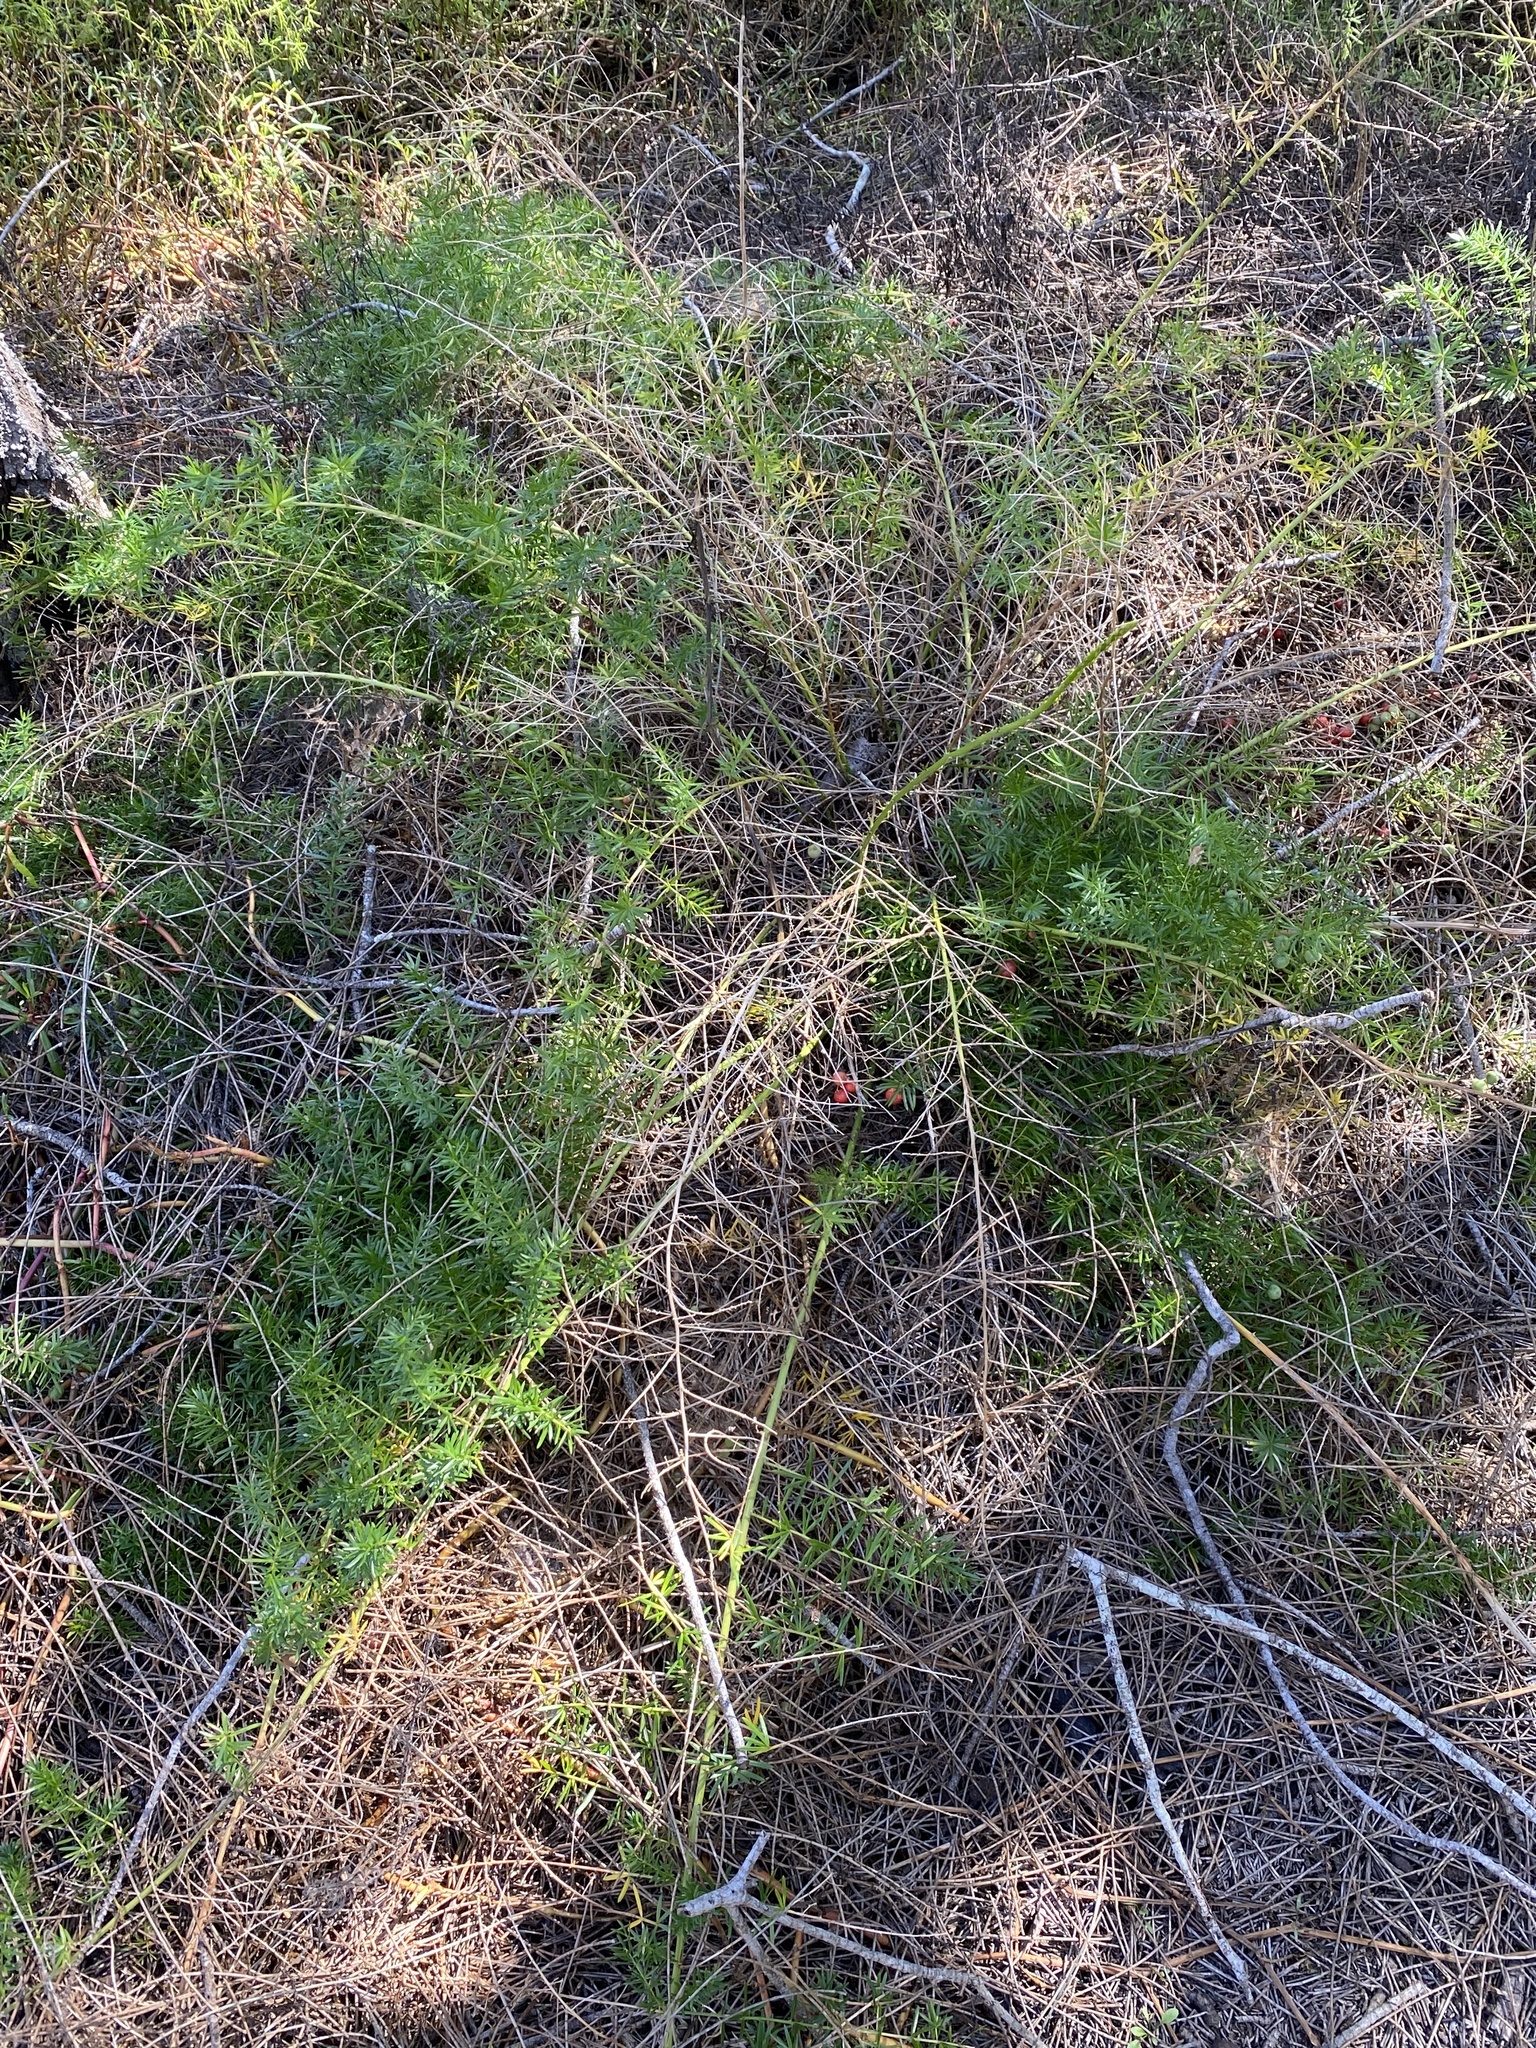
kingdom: Plantae
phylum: Tracheophyta
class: Liliopsida
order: Asparagales
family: Asparagaceae
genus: Asparagus
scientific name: Asparagus aethiopicus
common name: Sprenger's asparagus fern
